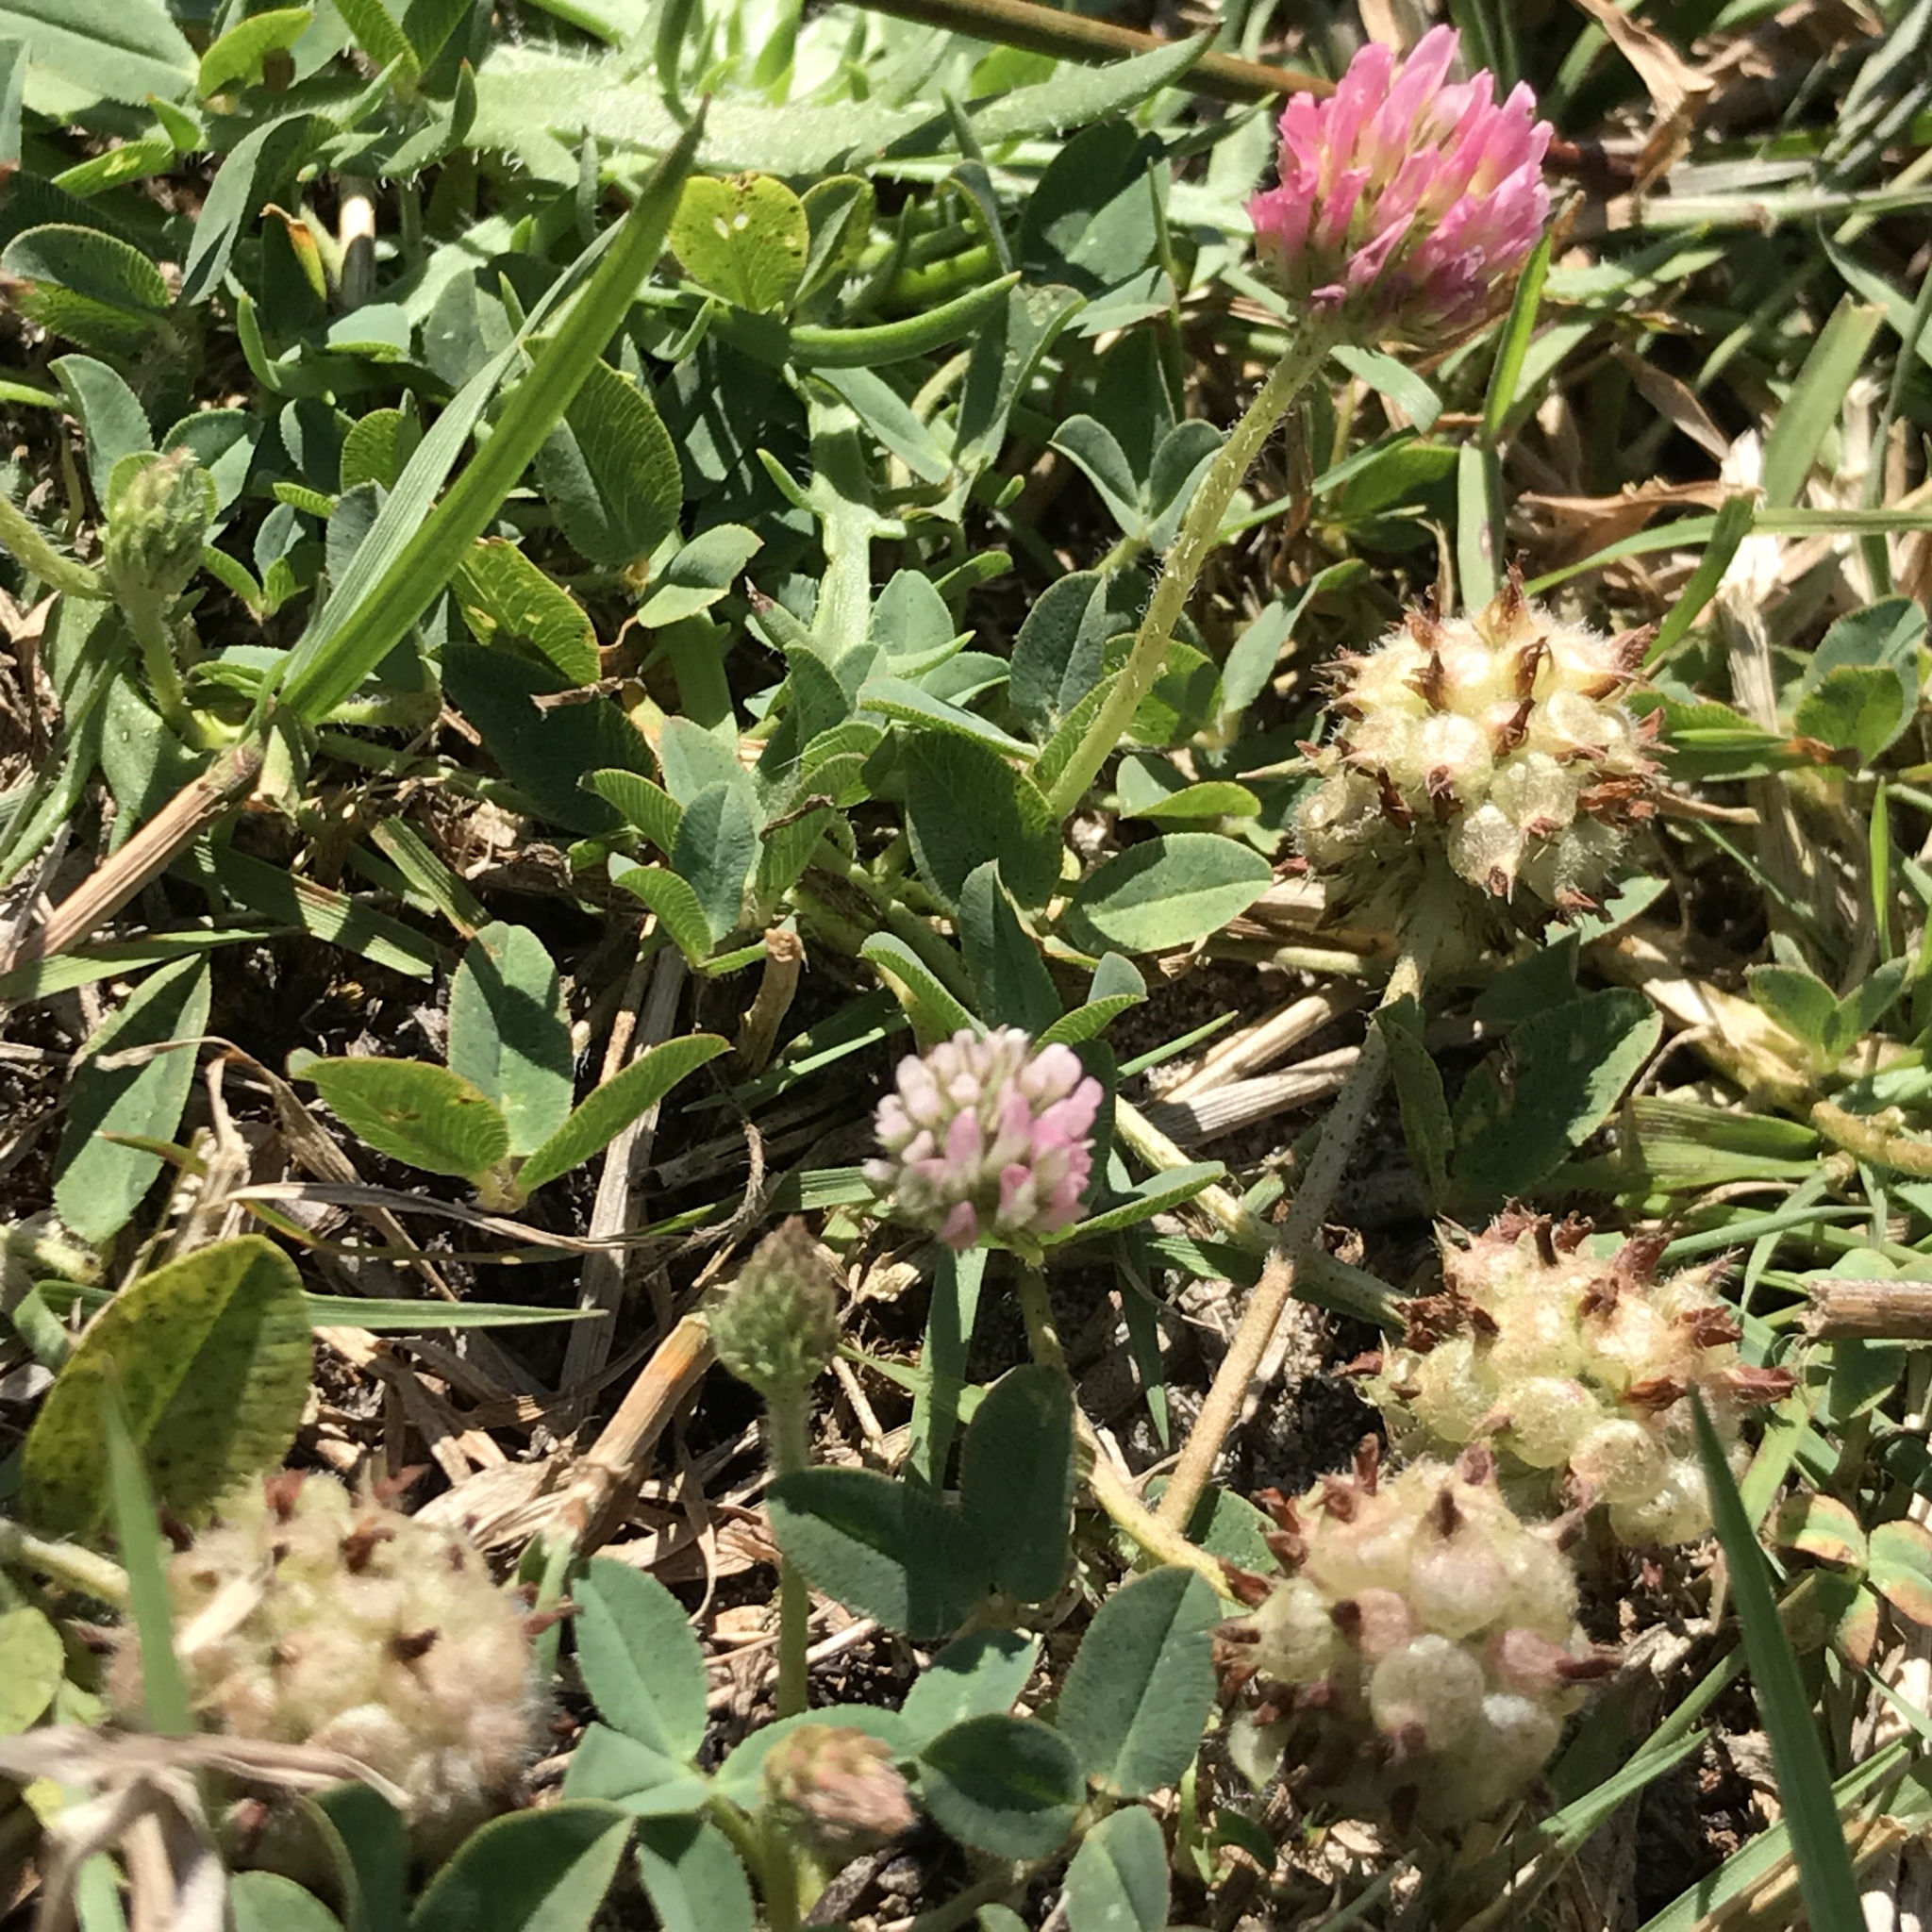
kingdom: Plantae
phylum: Tracheophyta
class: Magnoliopsida
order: Fabales
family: Fabaceae
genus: Trifolium
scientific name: Trifolium fragiferum
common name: Strawberry clover
